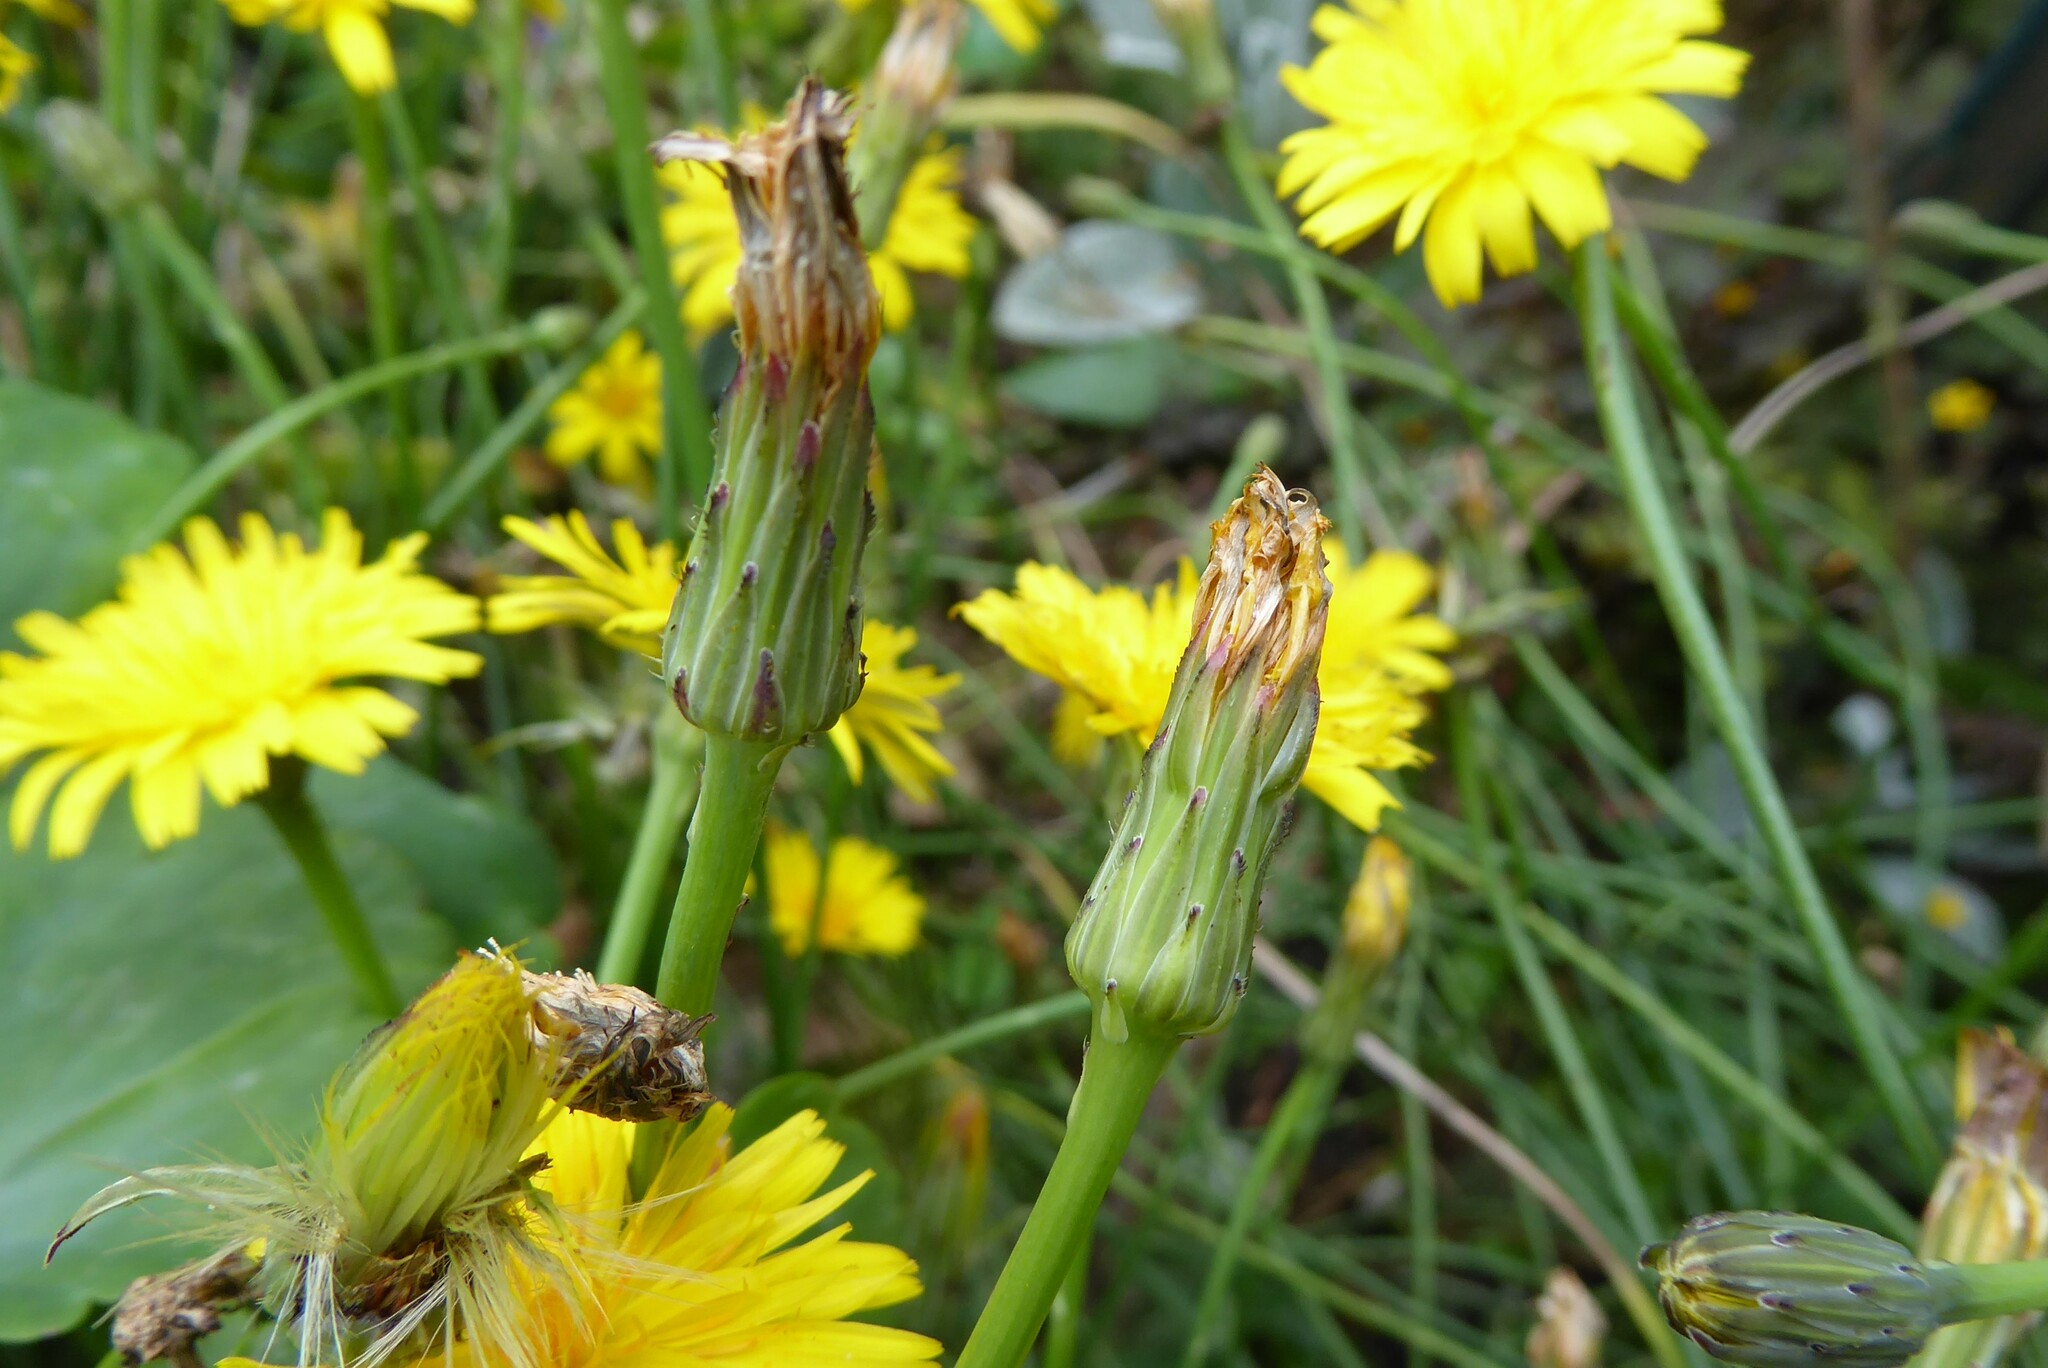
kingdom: Plantae
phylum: Tracheophyta
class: Magnoliopsida
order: Asterales
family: Asteraceae
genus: Hypochaeris
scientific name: Hypochaeris radicata
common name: Flatweed
